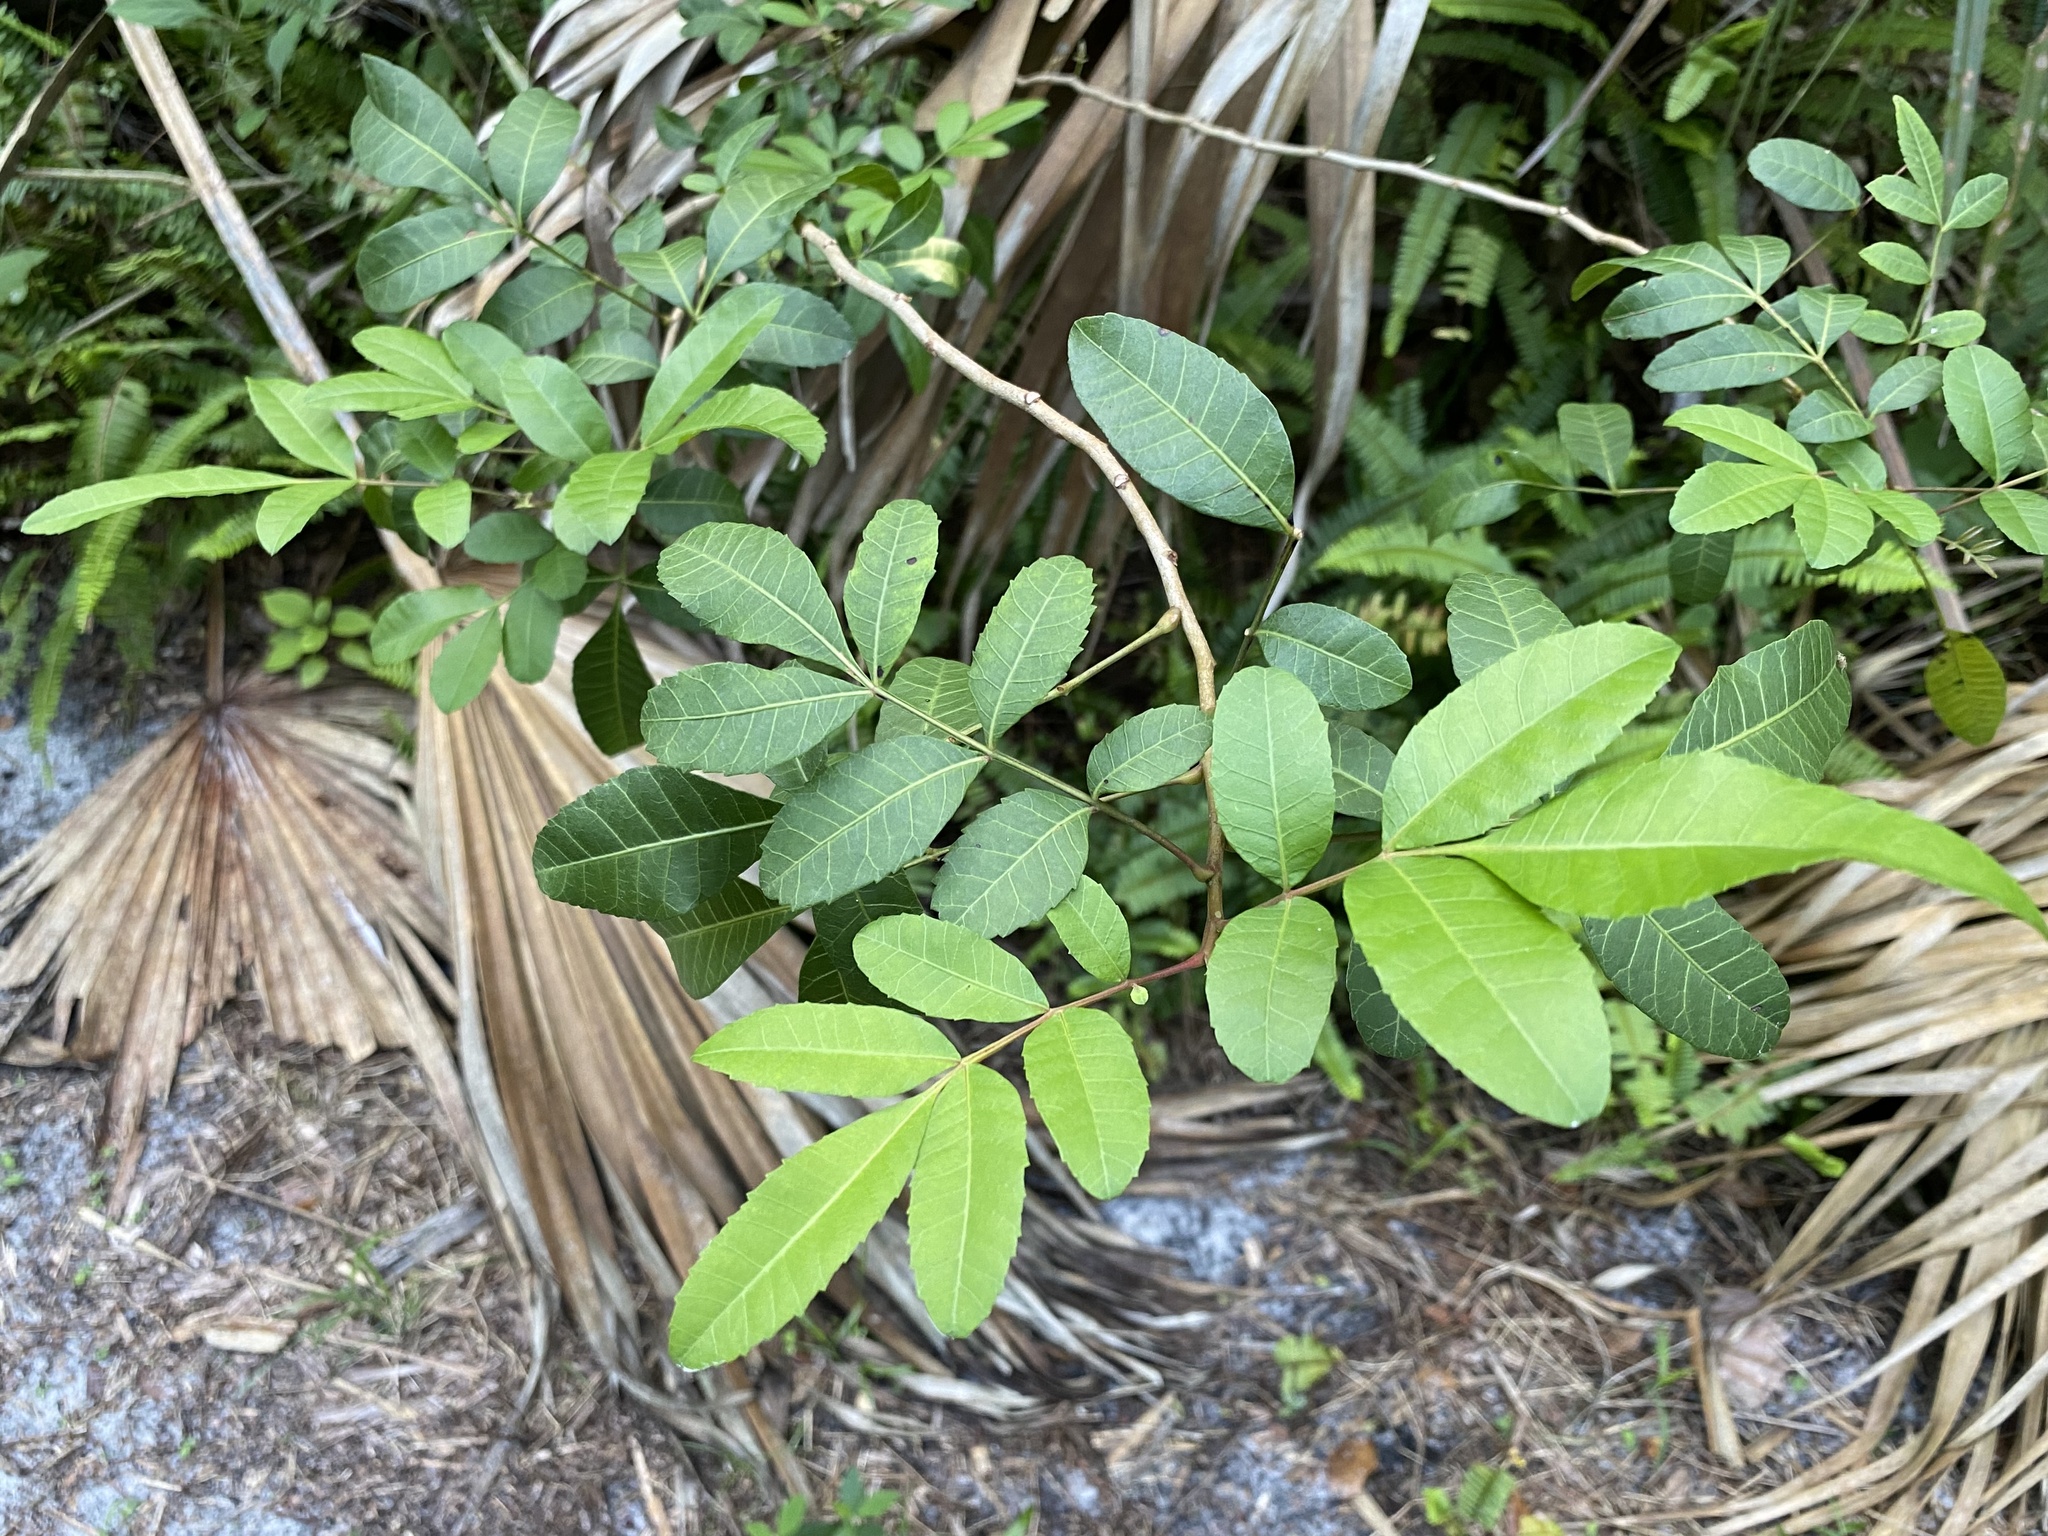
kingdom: Plantae
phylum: Tracheophyta
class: Magnoliopsida
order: Sapindales
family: Anacardiaceae
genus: Schinus
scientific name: Schinus terebinthifolia
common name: Brazilian peppertree
